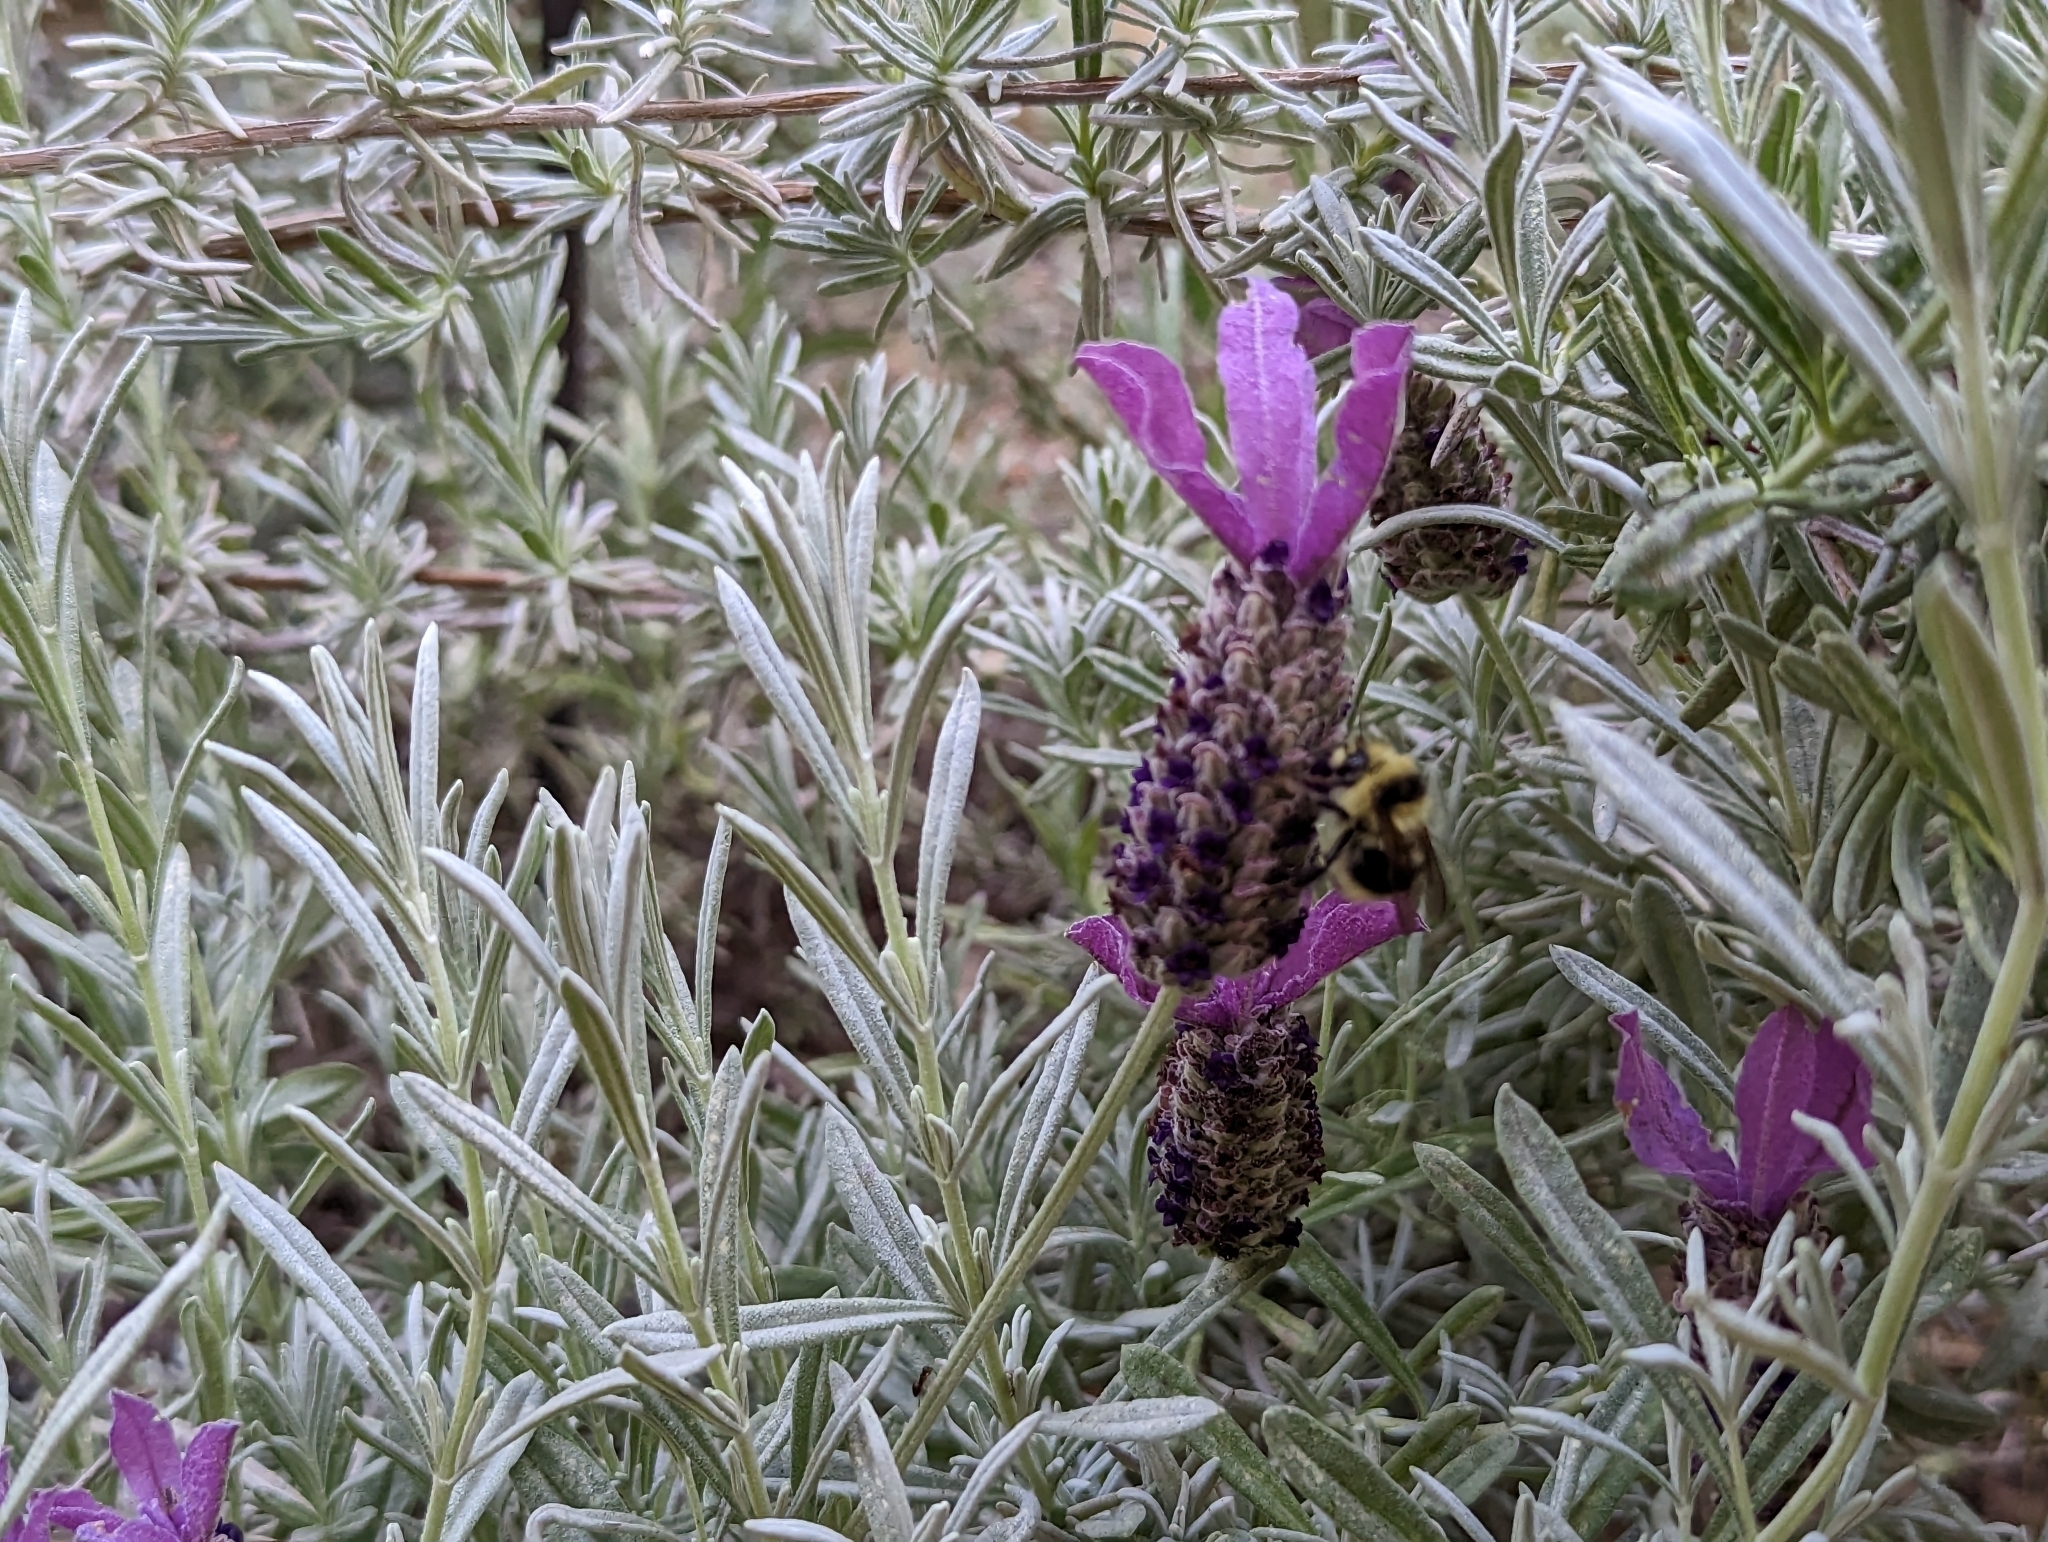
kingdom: Animalia
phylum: Arthropoda
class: Insecta
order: Hymenoptera
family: Apidae
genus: Bombus
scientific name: Bombus melanopygus
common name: Black tail bumble bee
